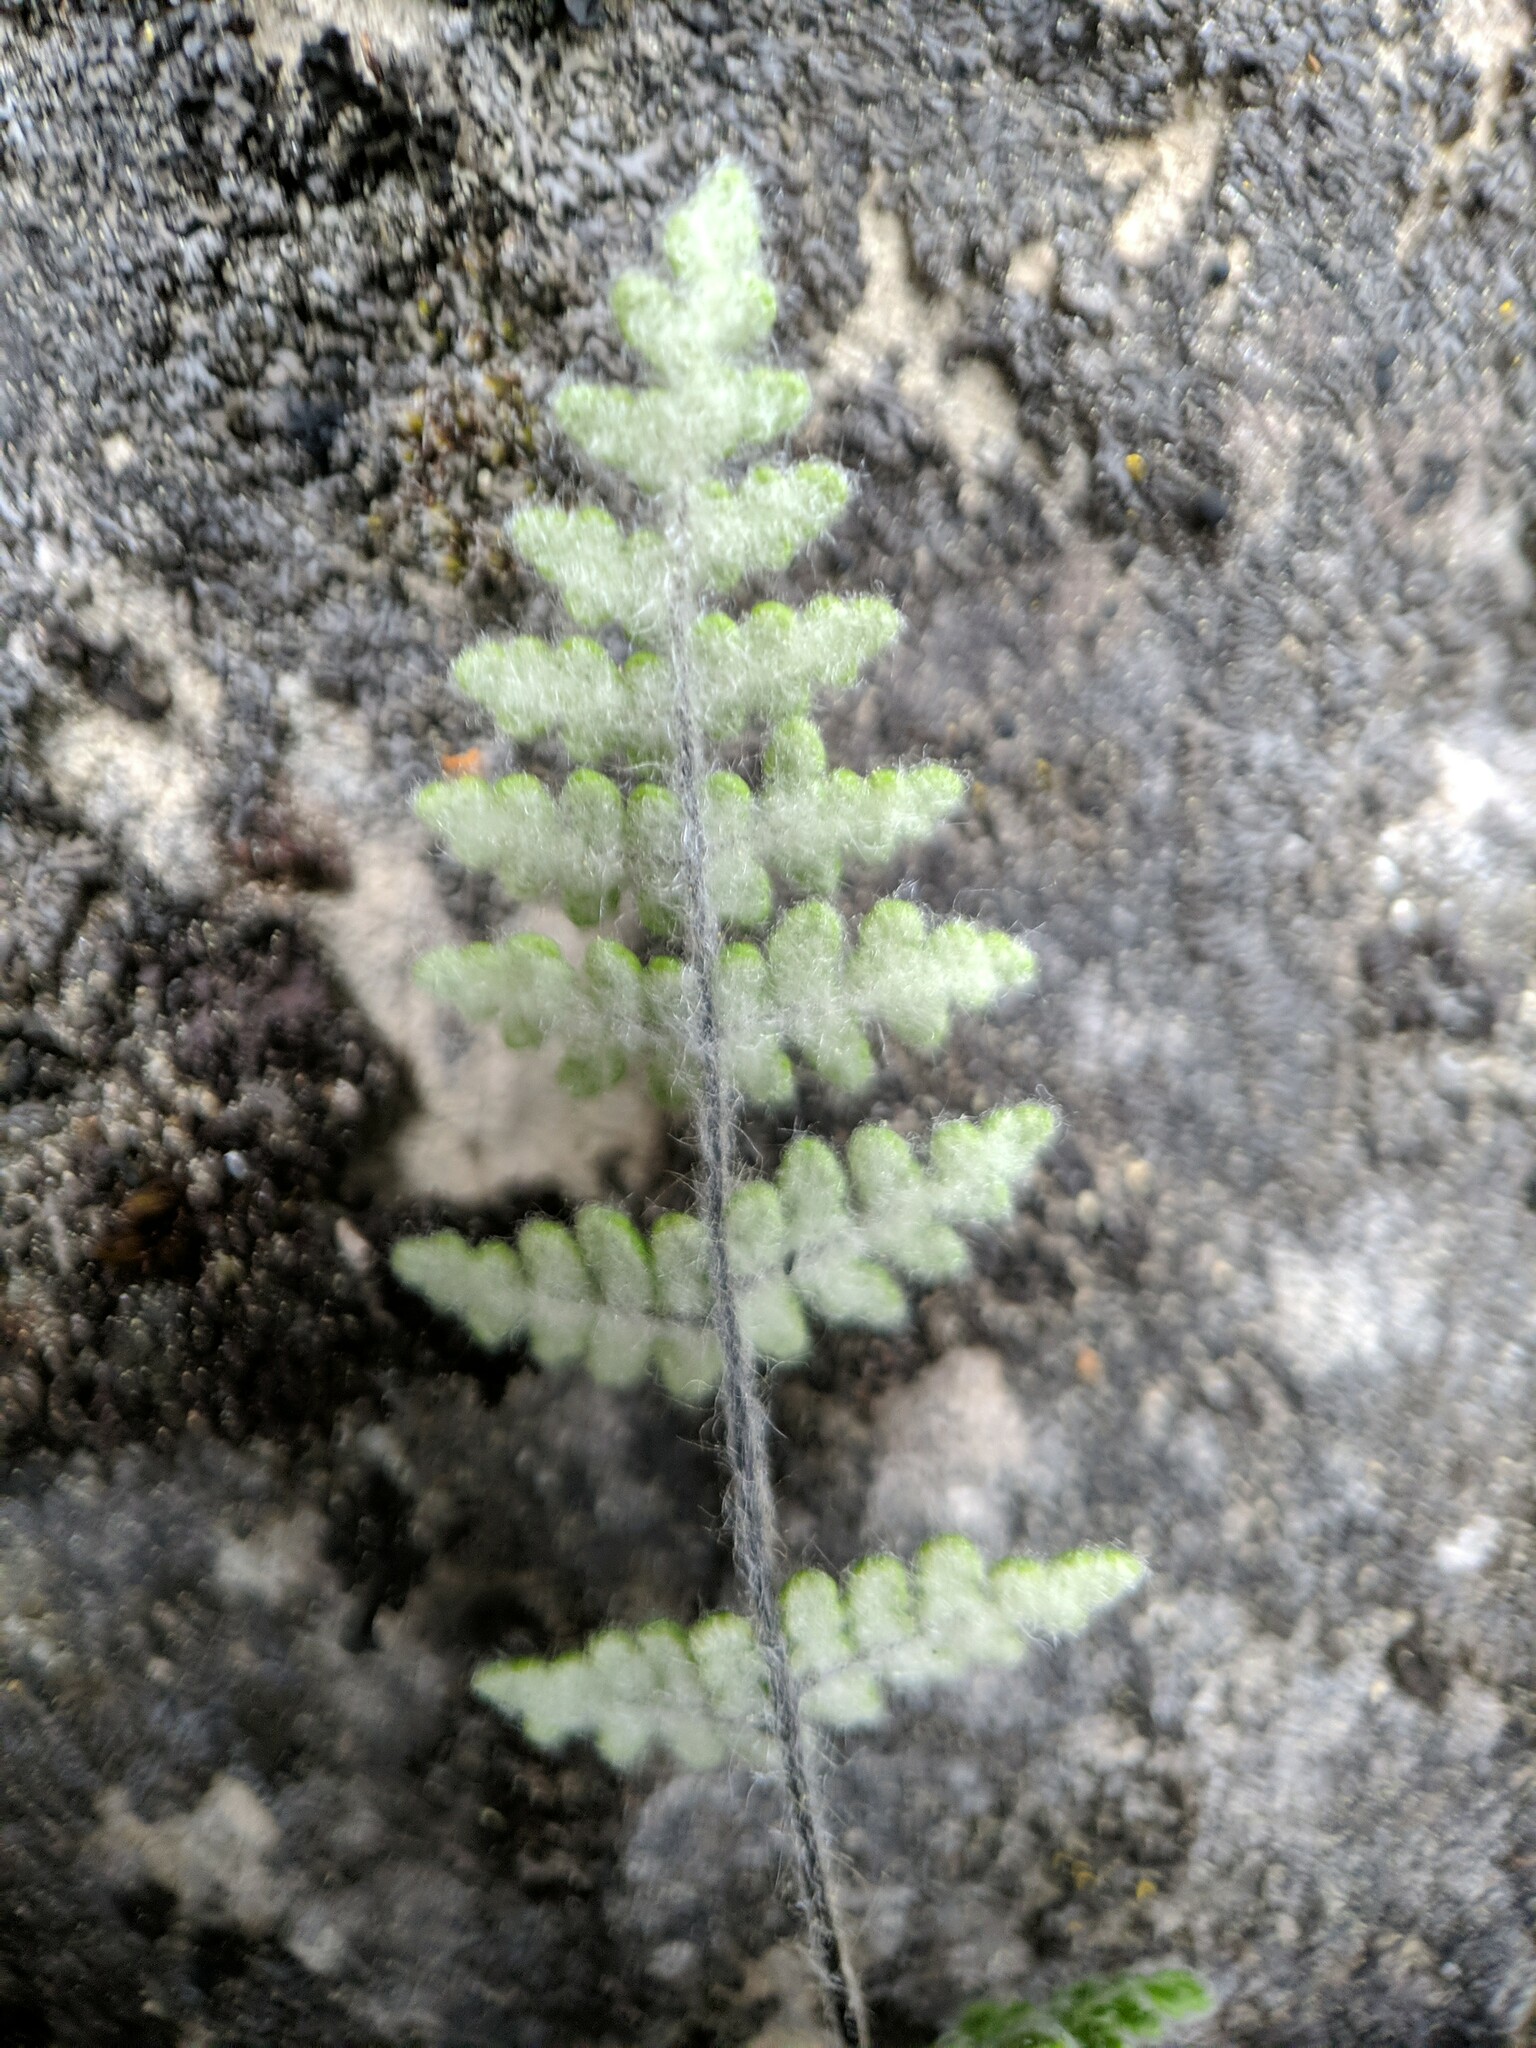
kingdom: Plantae
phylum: Tracheophyta
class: Polypodiopsida
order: Polypodiales
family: Pteridaceae
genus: Myriopteris
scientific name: Myriopteris gracilis
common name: Fee's lip fern
